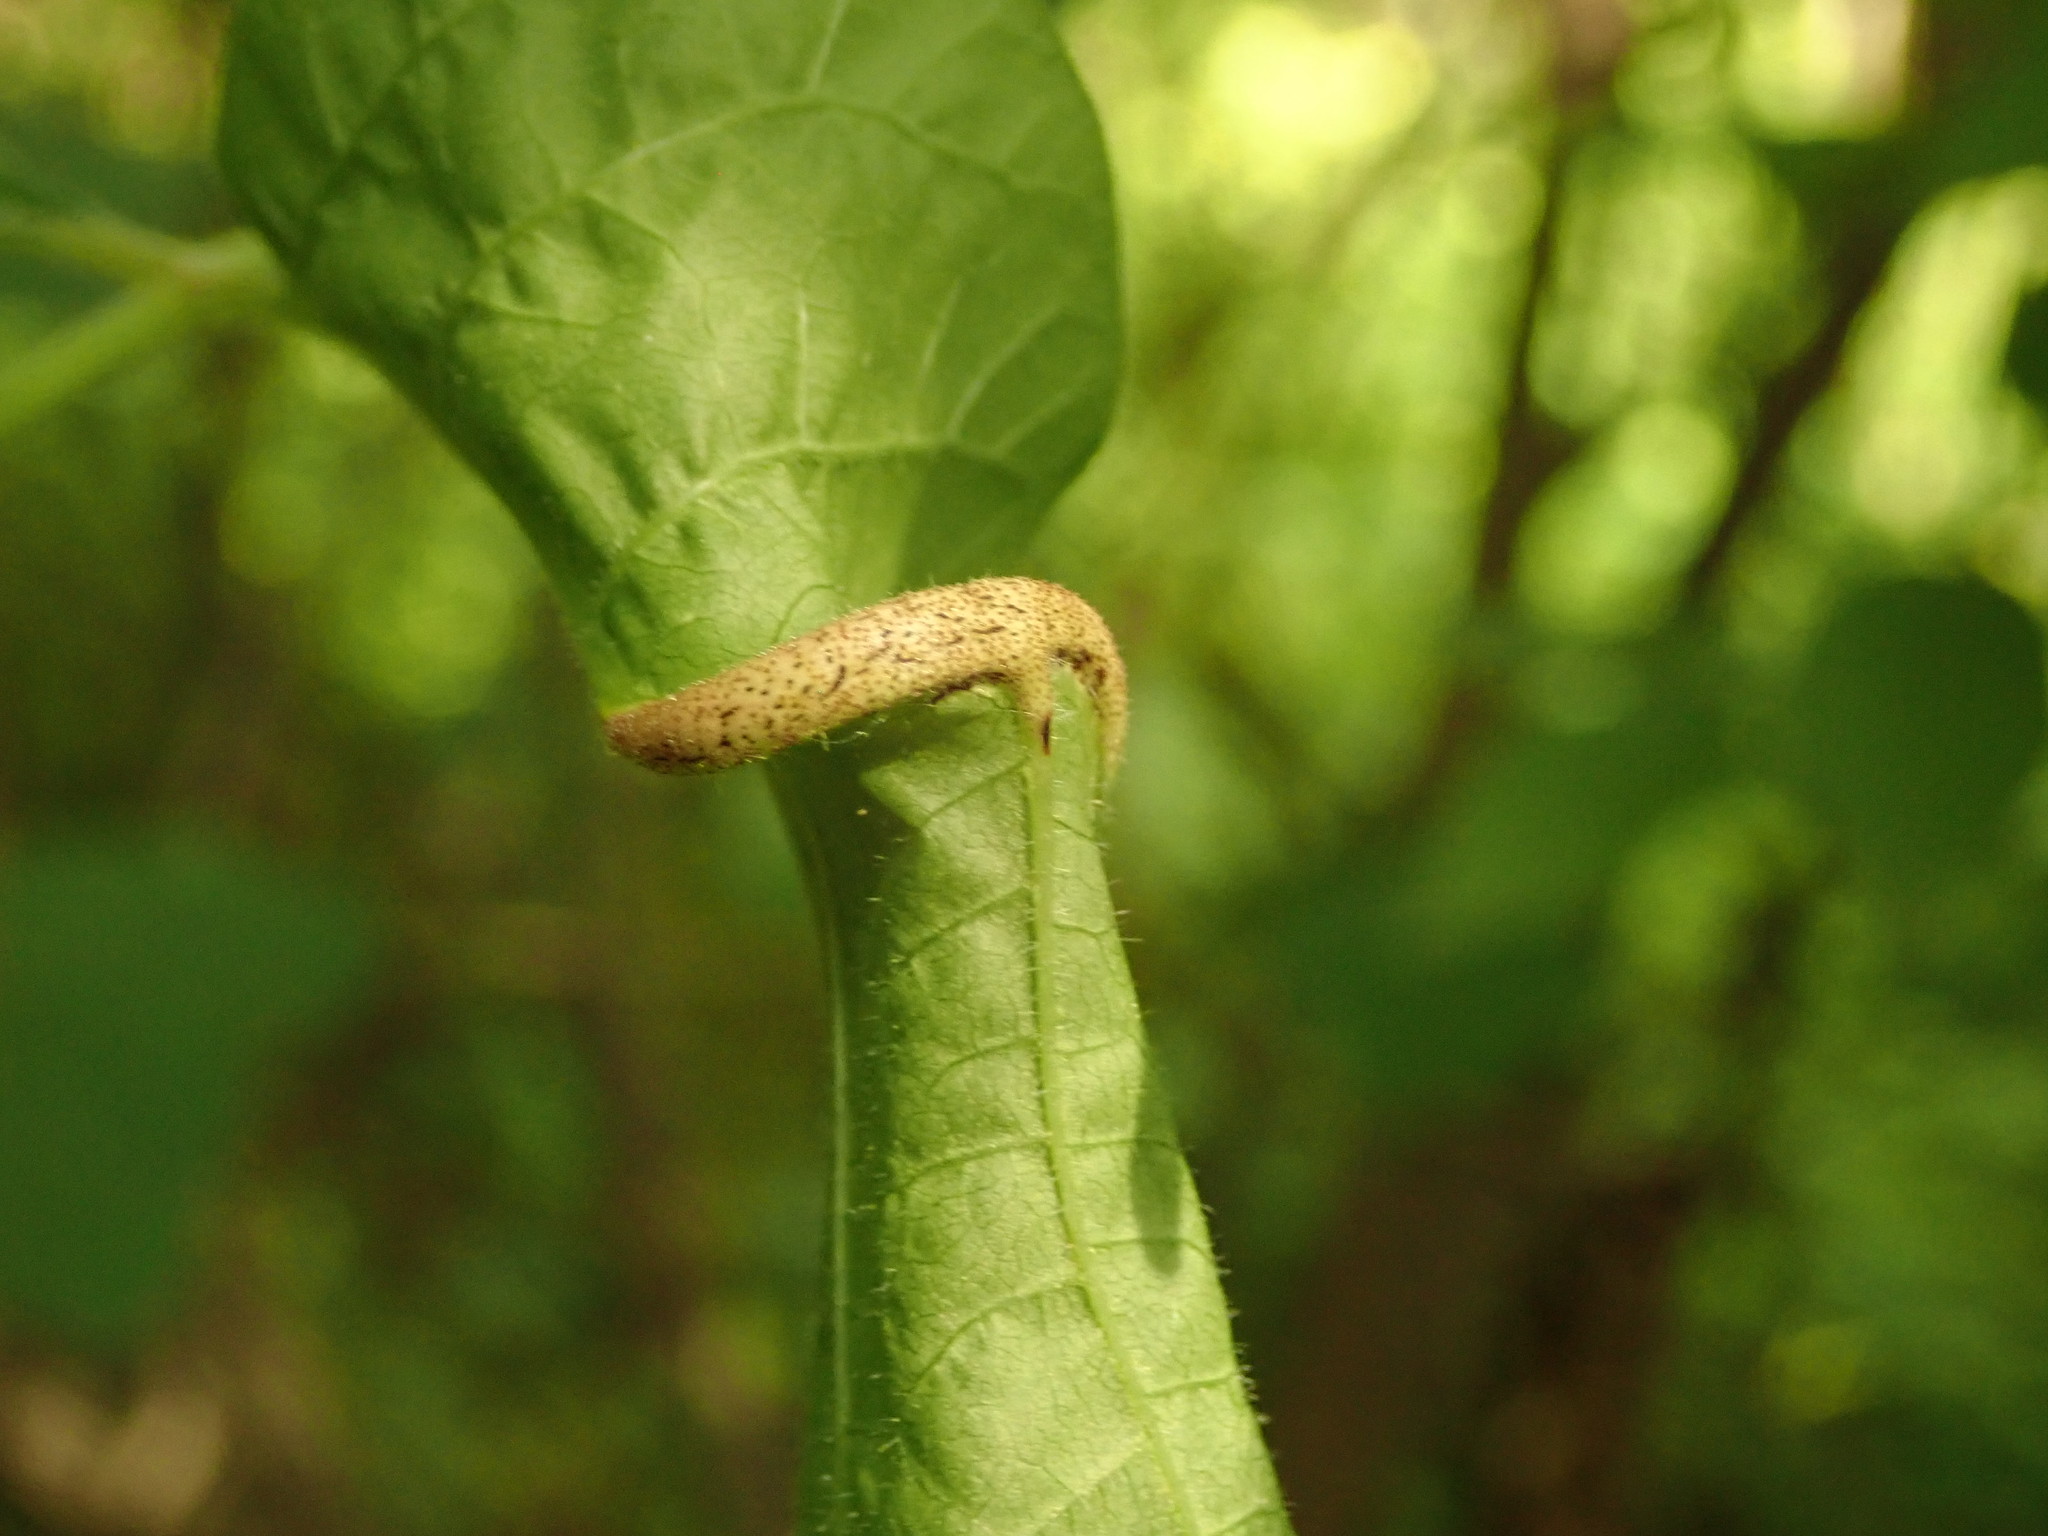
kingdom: Fungi
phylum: Basidiomycota
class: Pucciniomycetes
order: Pucciniales
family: Pileolariaceae
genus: Pileolaria
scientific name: Pileolaria brevipes
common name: Poison ivy rust
